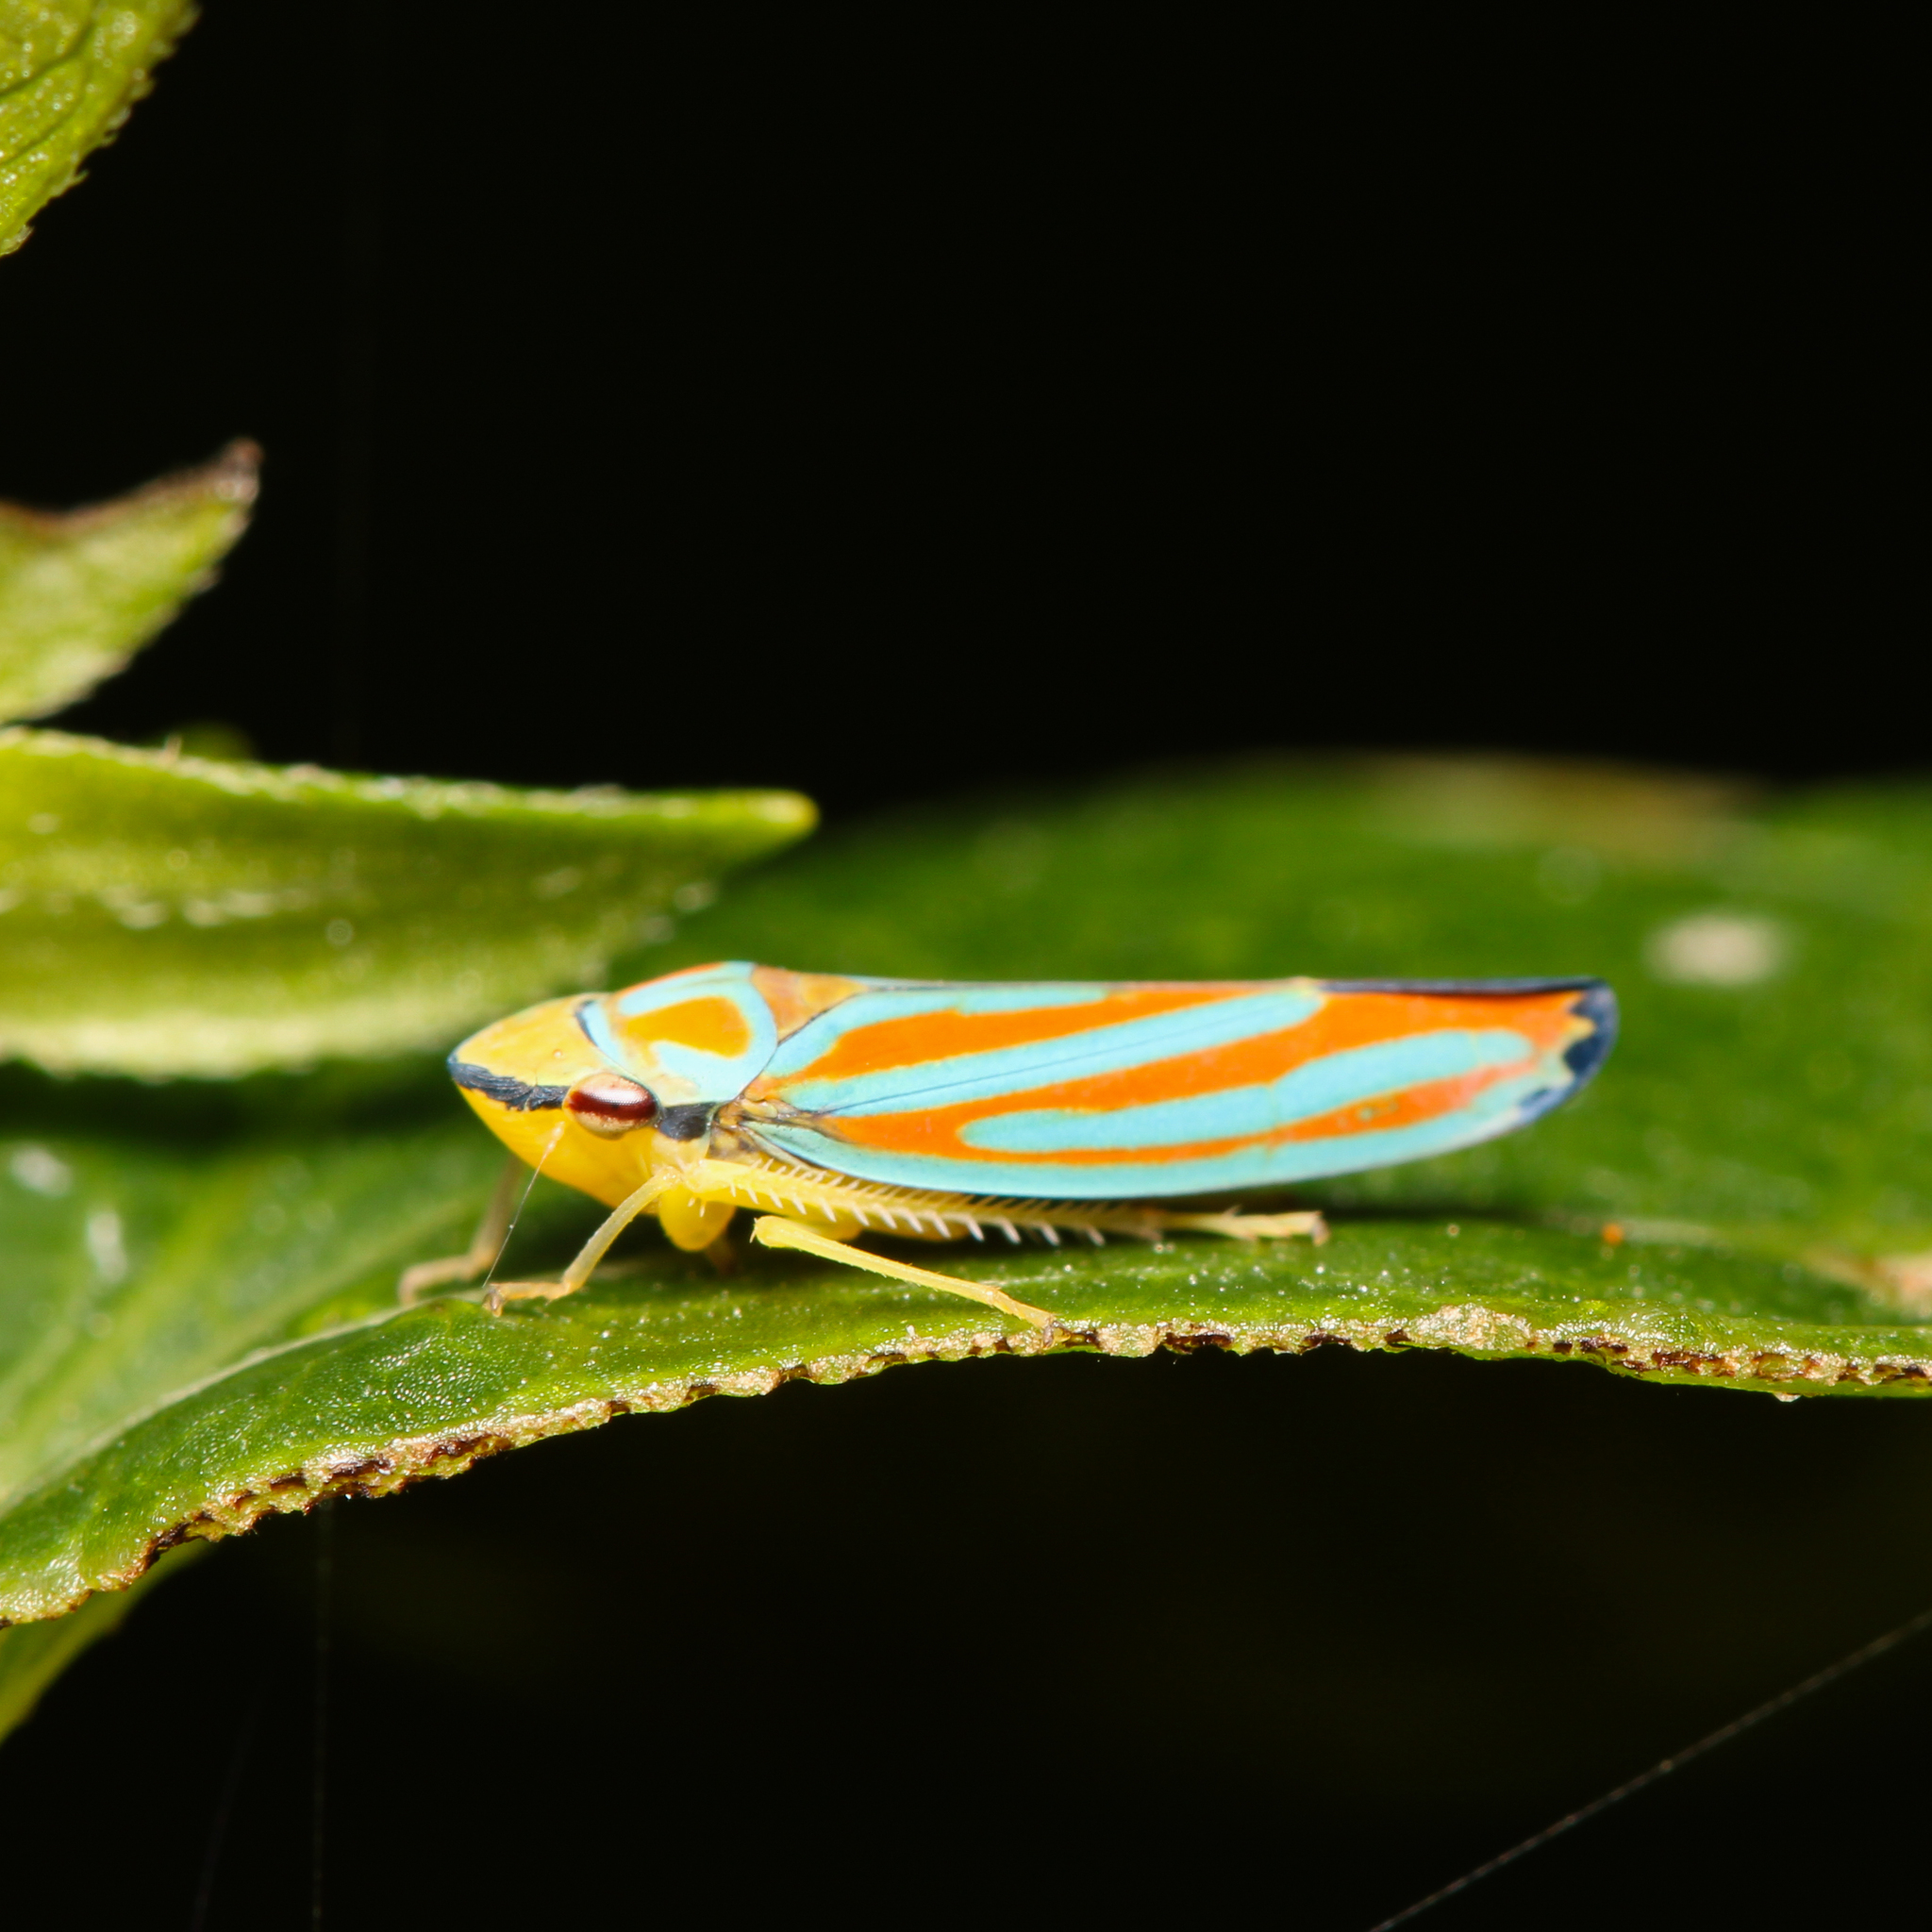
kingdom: Animalia
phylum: Arthropoda
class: Insecta
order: Hemiptera
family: Cicadellidae
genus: Graphocephala
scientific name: Graphocephala coccinea
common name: Candy-striped leafhopper
